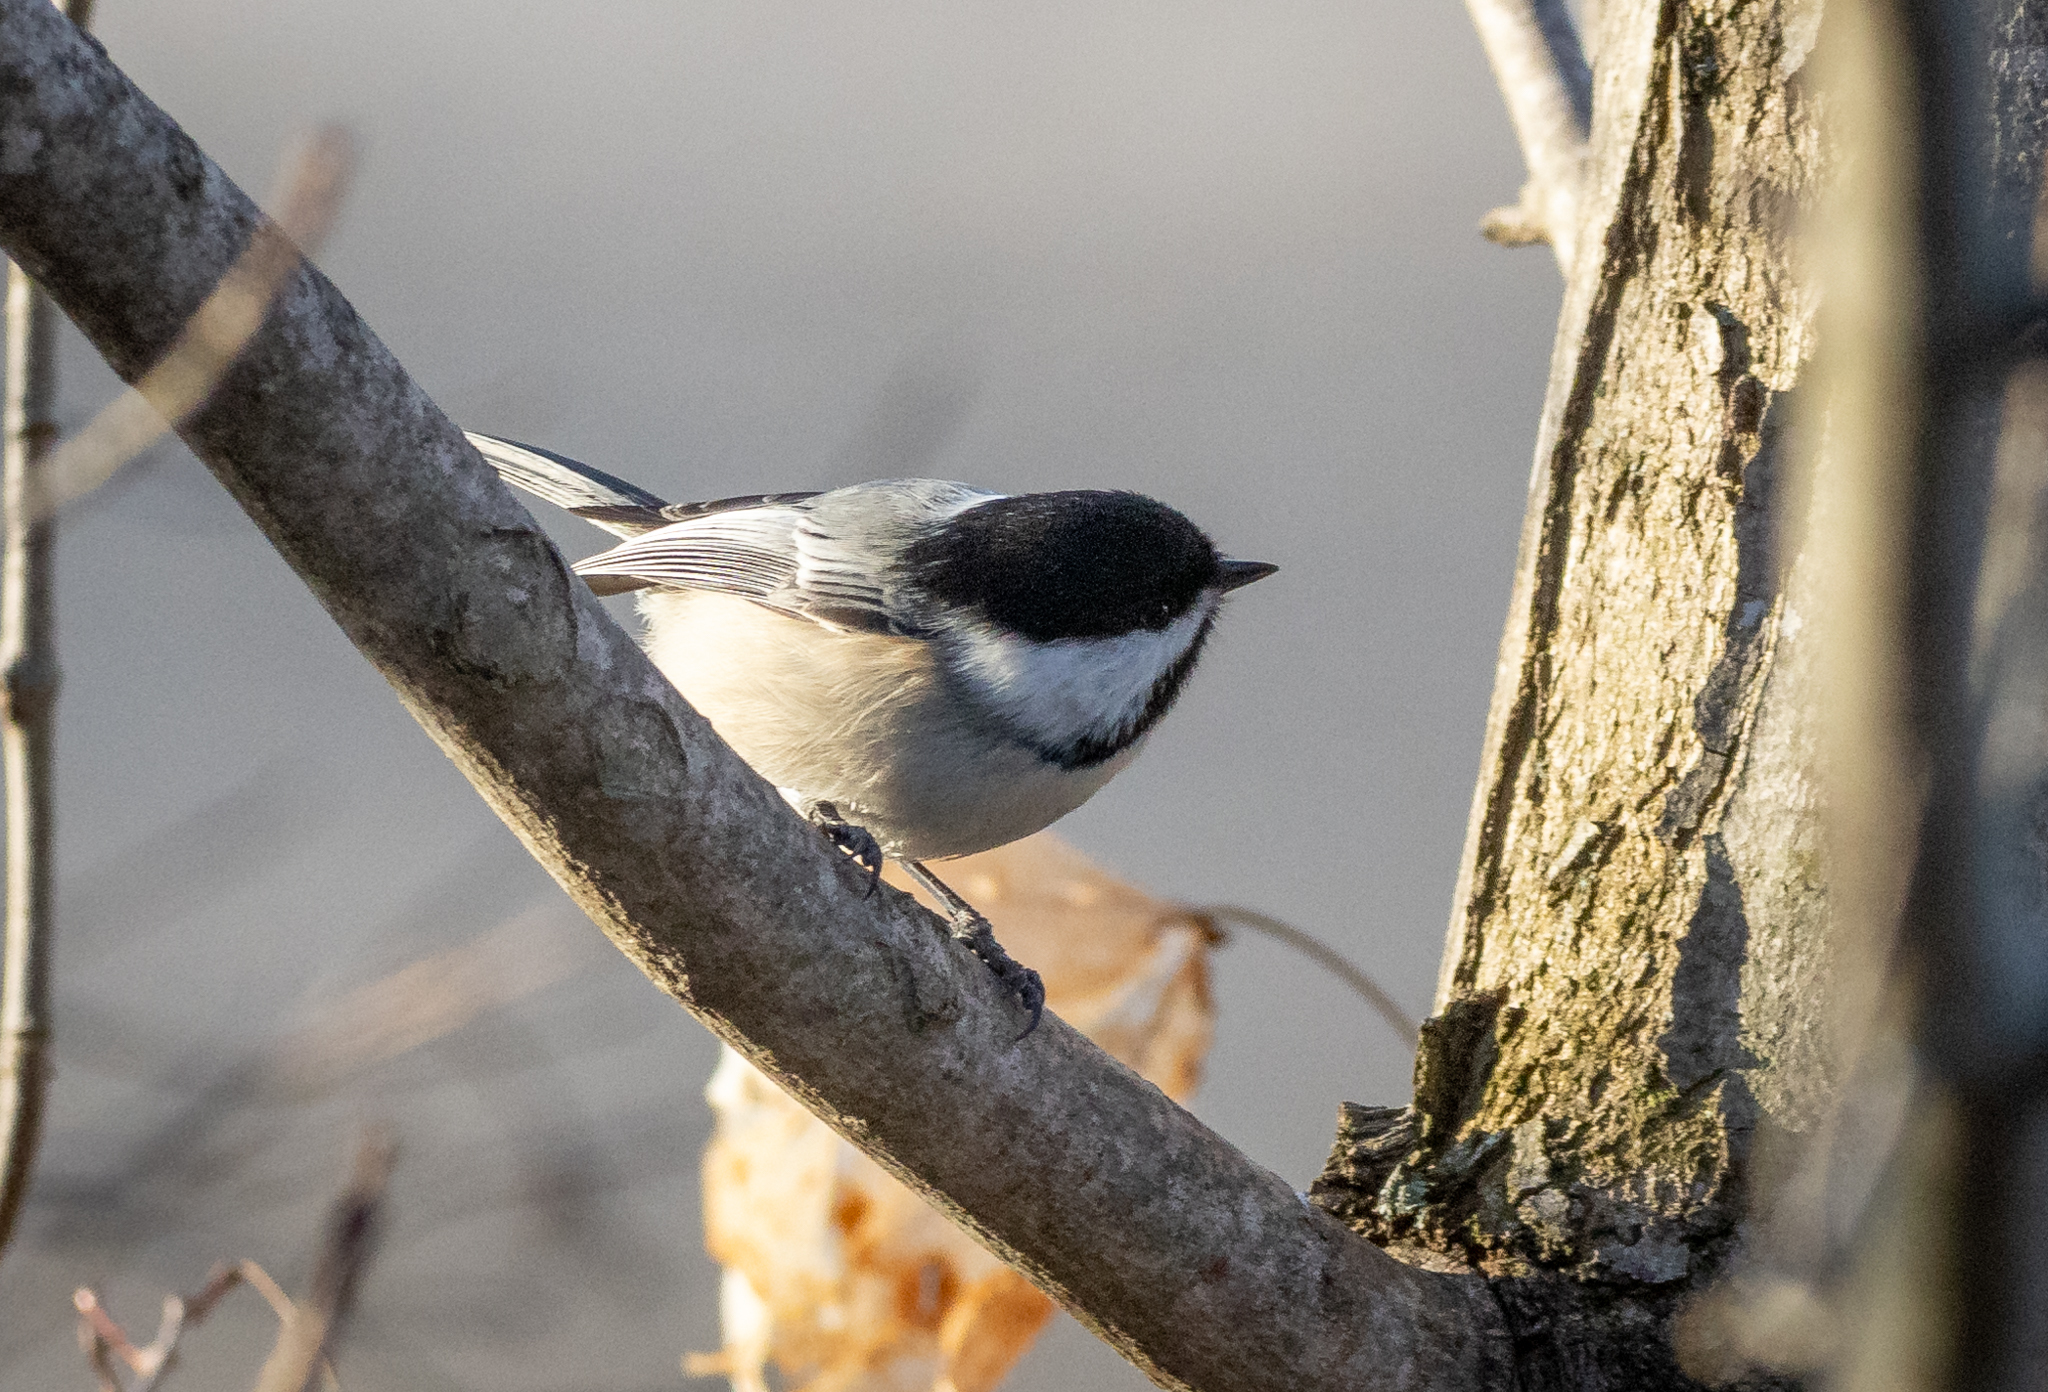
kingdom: Animalia
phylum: Chordata
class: Aves
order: Passeriformes
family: Paridae
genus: Poecile
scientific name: Poecile atricapillus
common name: Black-capped chickadee
